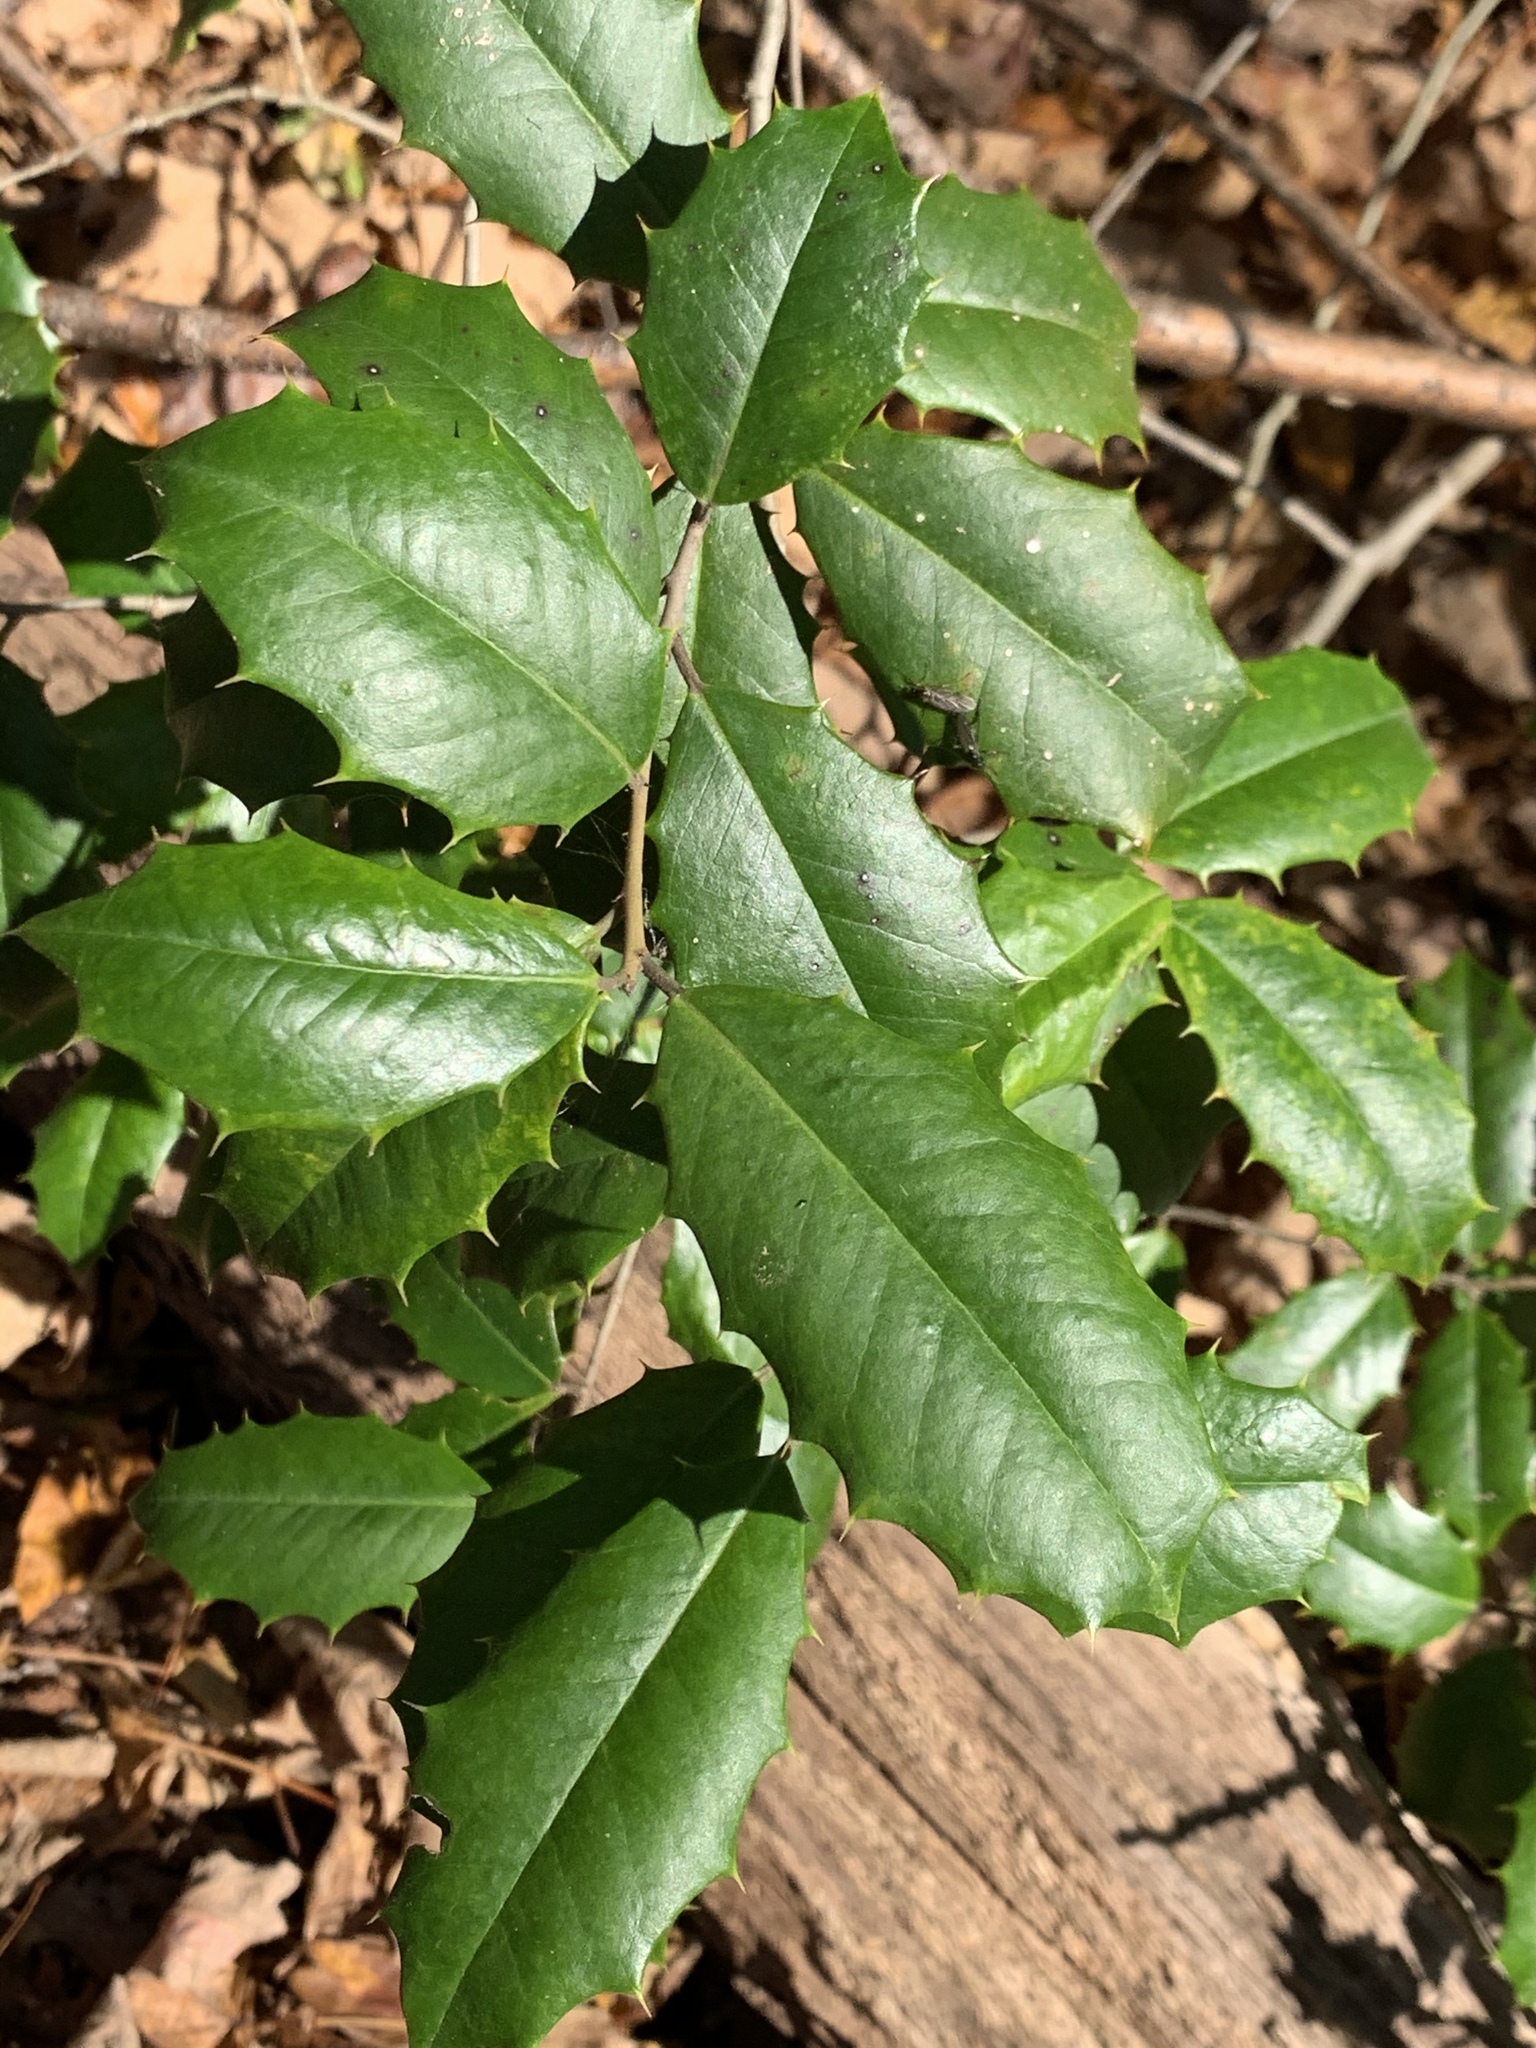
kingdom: Plantae
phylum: Tracheophyta
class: Magnoliopsida
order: Aquifoliales
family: Aquifoliaceae
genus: Ilex
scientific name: Ilex opaca
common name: American holly
